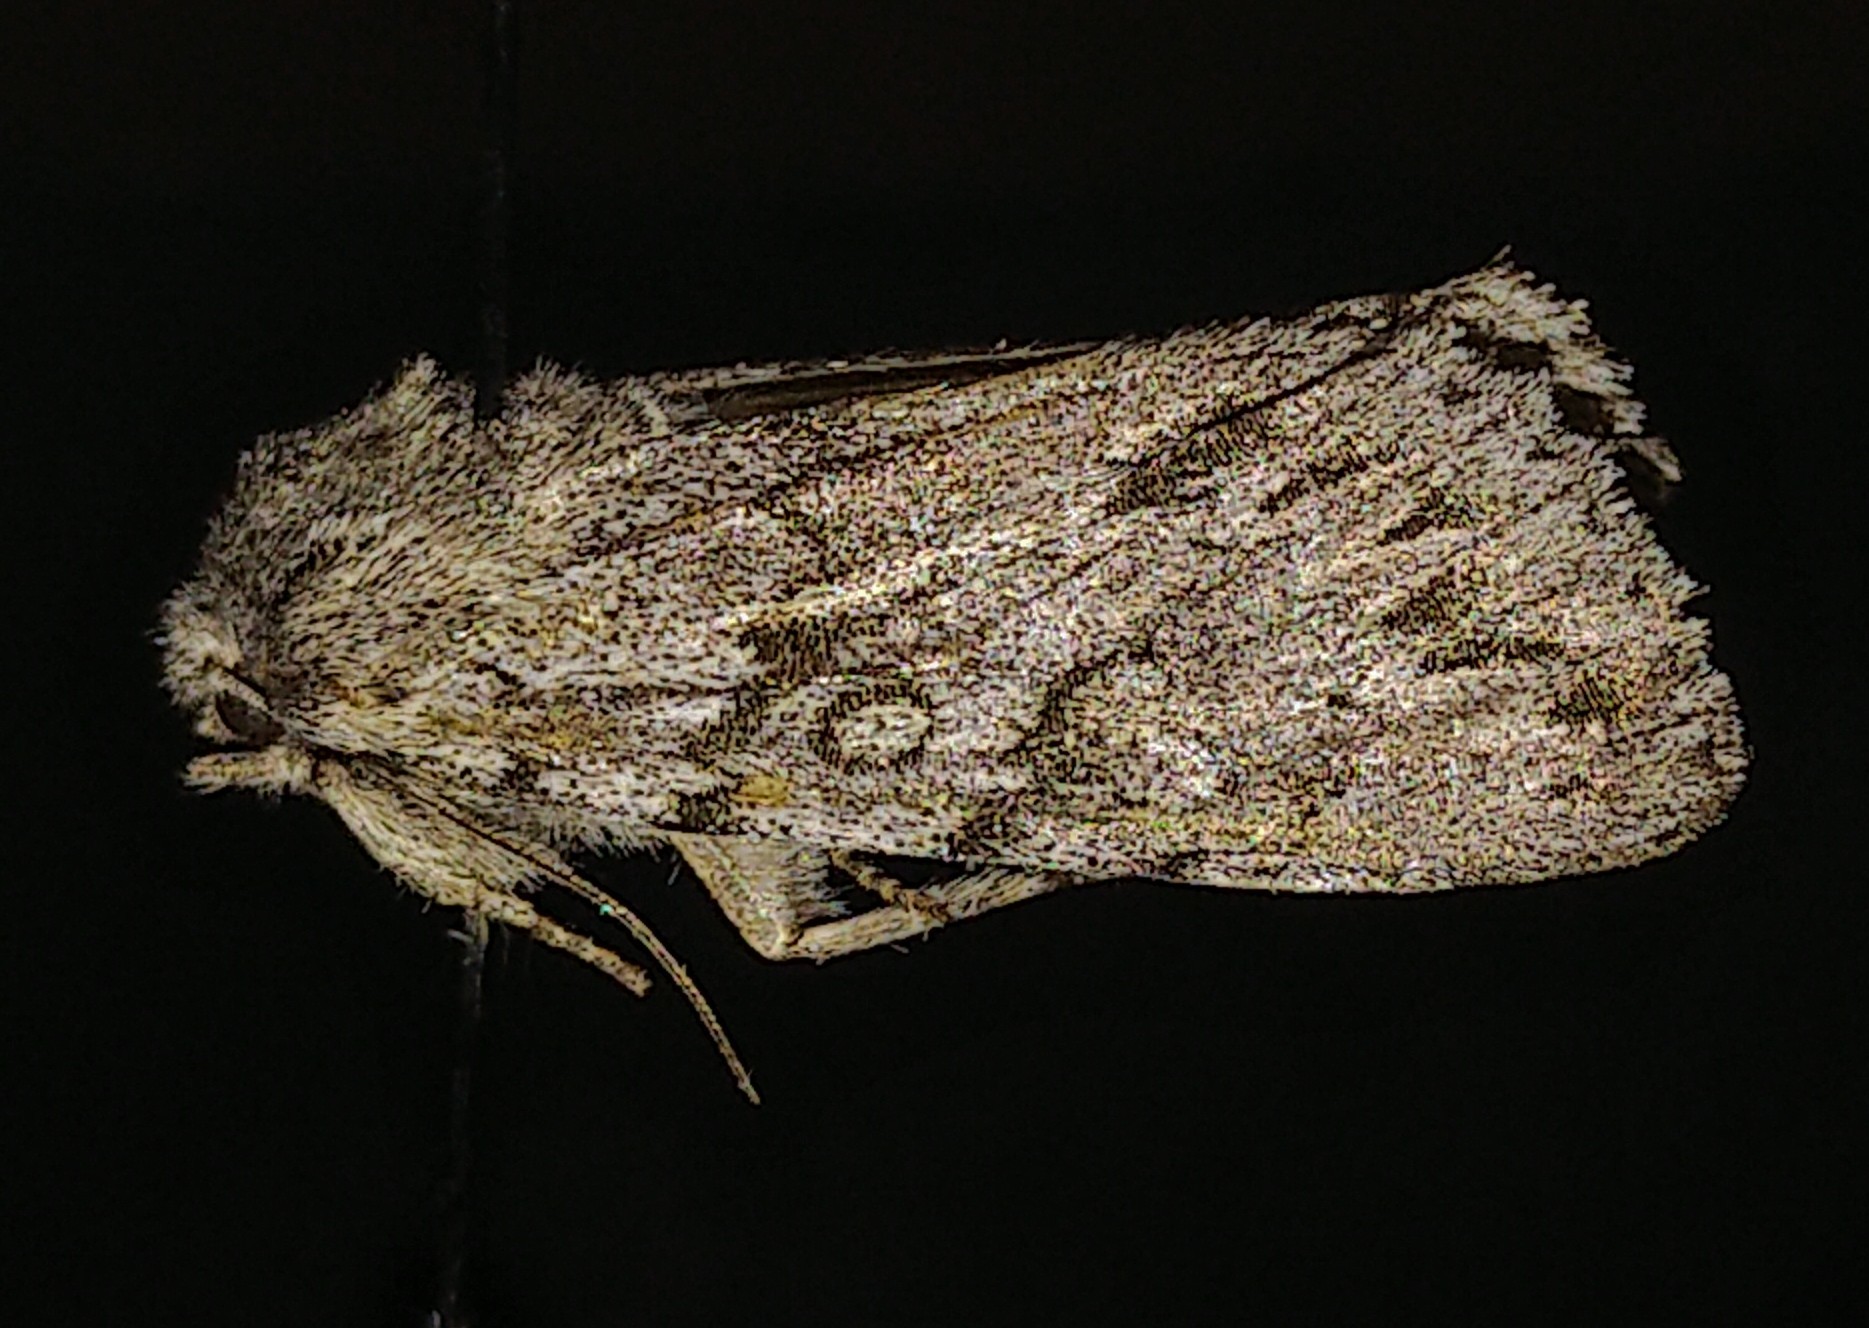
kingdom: Animalia
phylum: Arthropoda
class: Insecta
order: Lepidoptera
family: Noctuidae
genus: Andropolia
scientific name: Andropolia contacta
